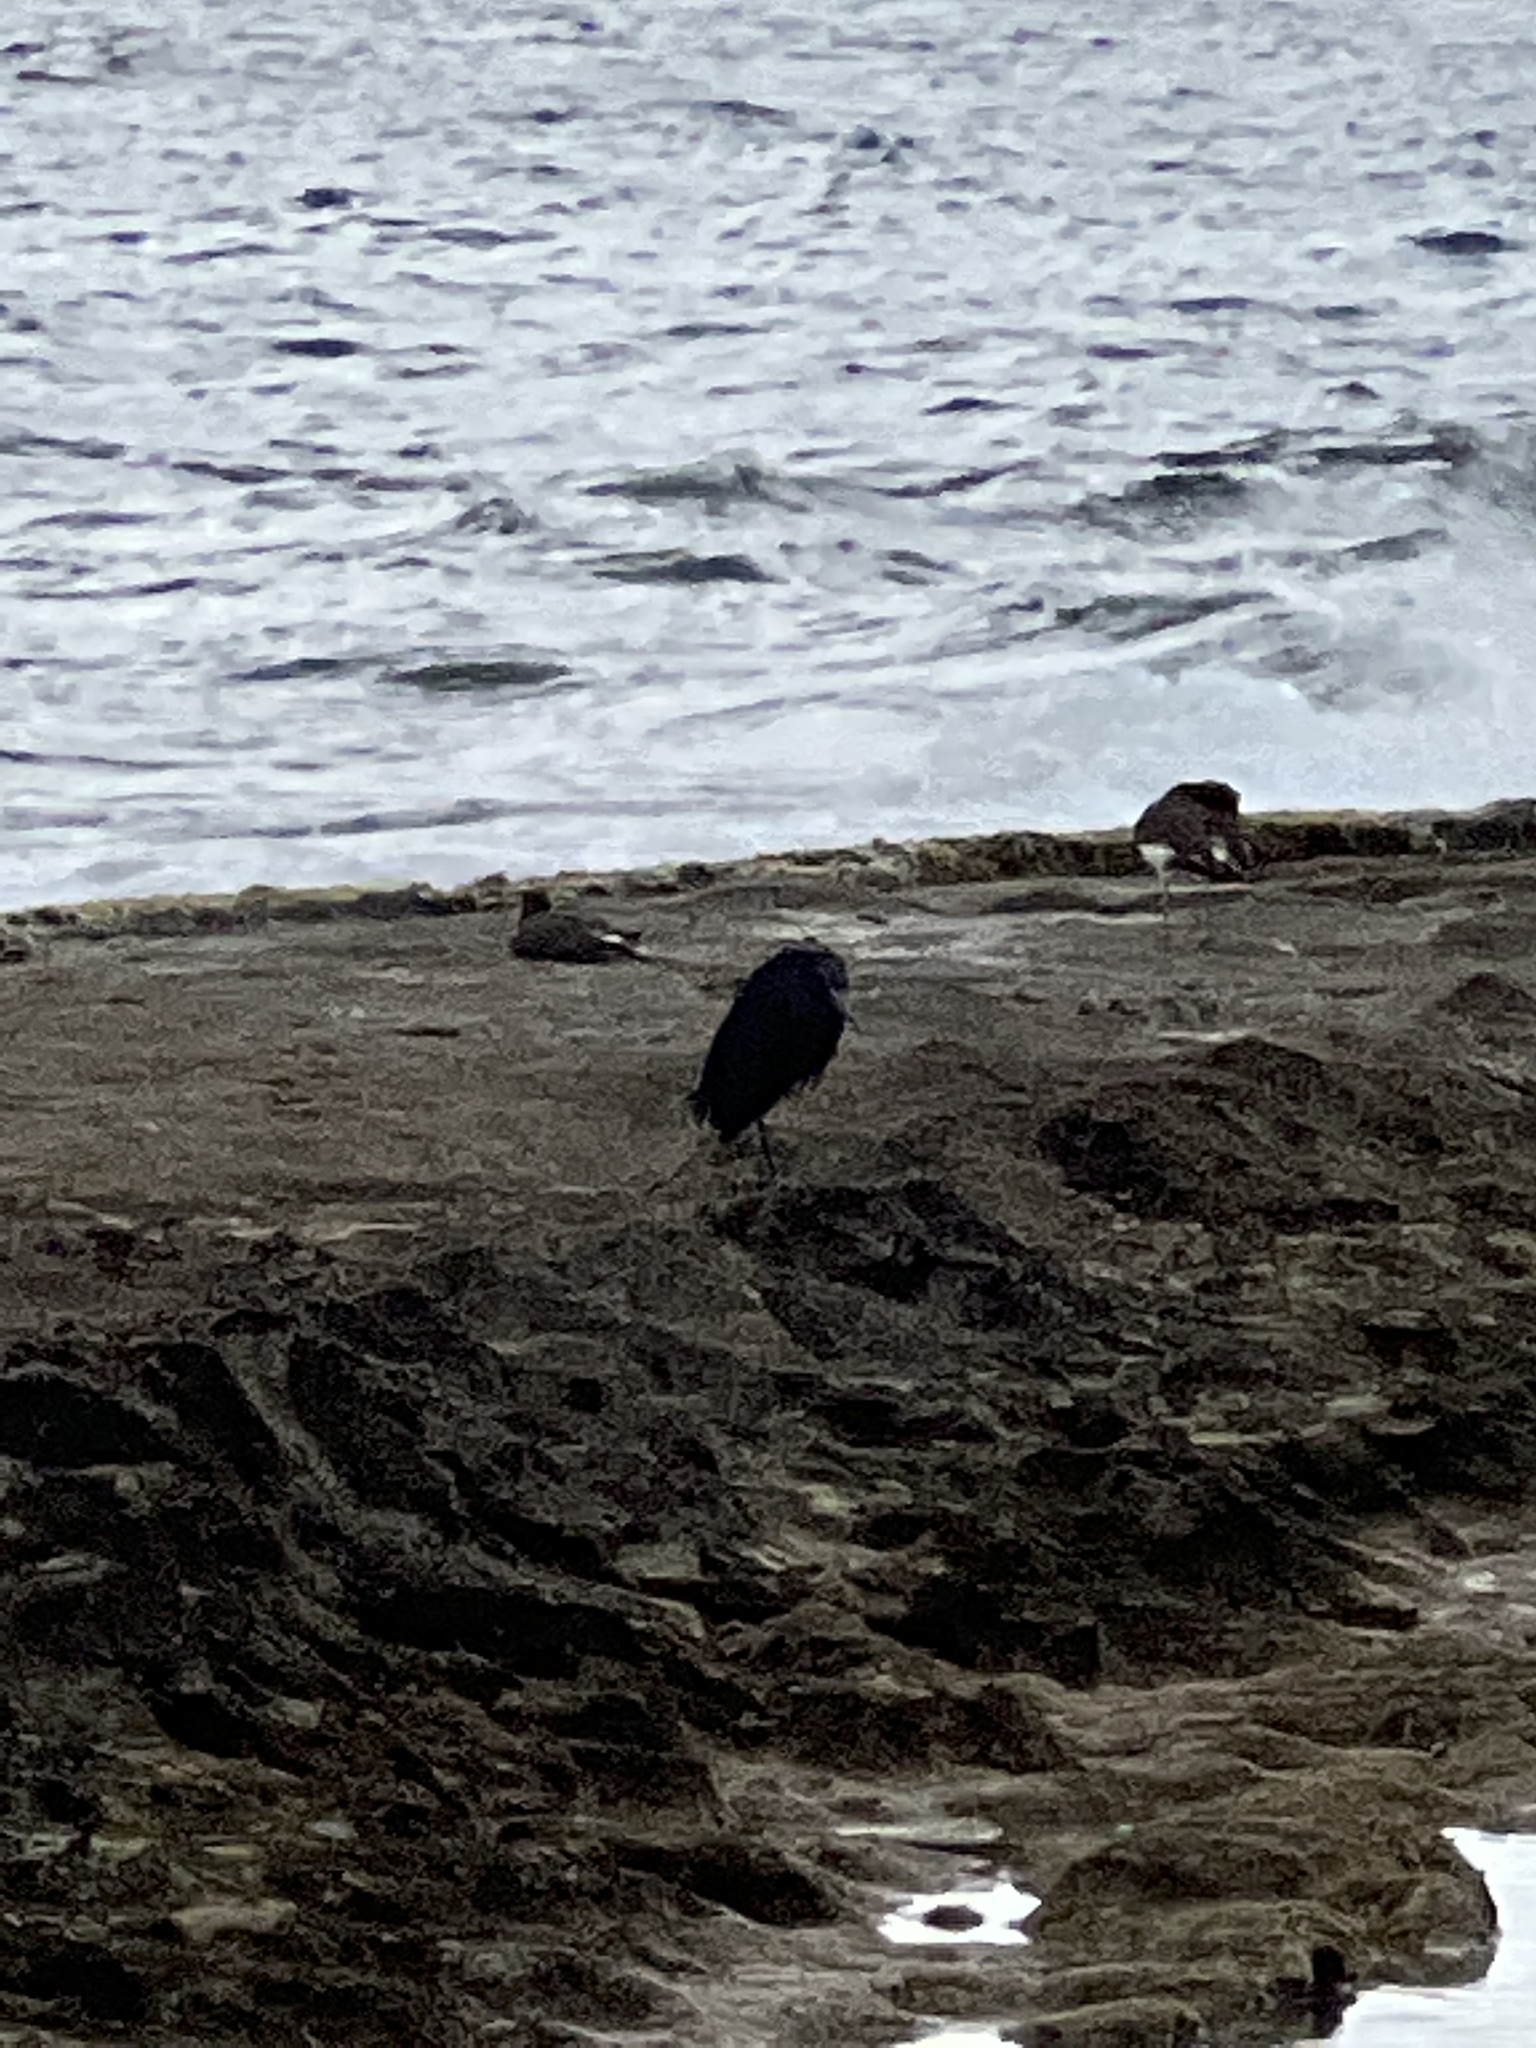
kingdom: Animalia
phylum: Chordata
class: Aves
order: Pelecaniformes
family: Ardeidae
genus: Egretta
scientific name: Egretta caerulea
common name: Little blue heron
